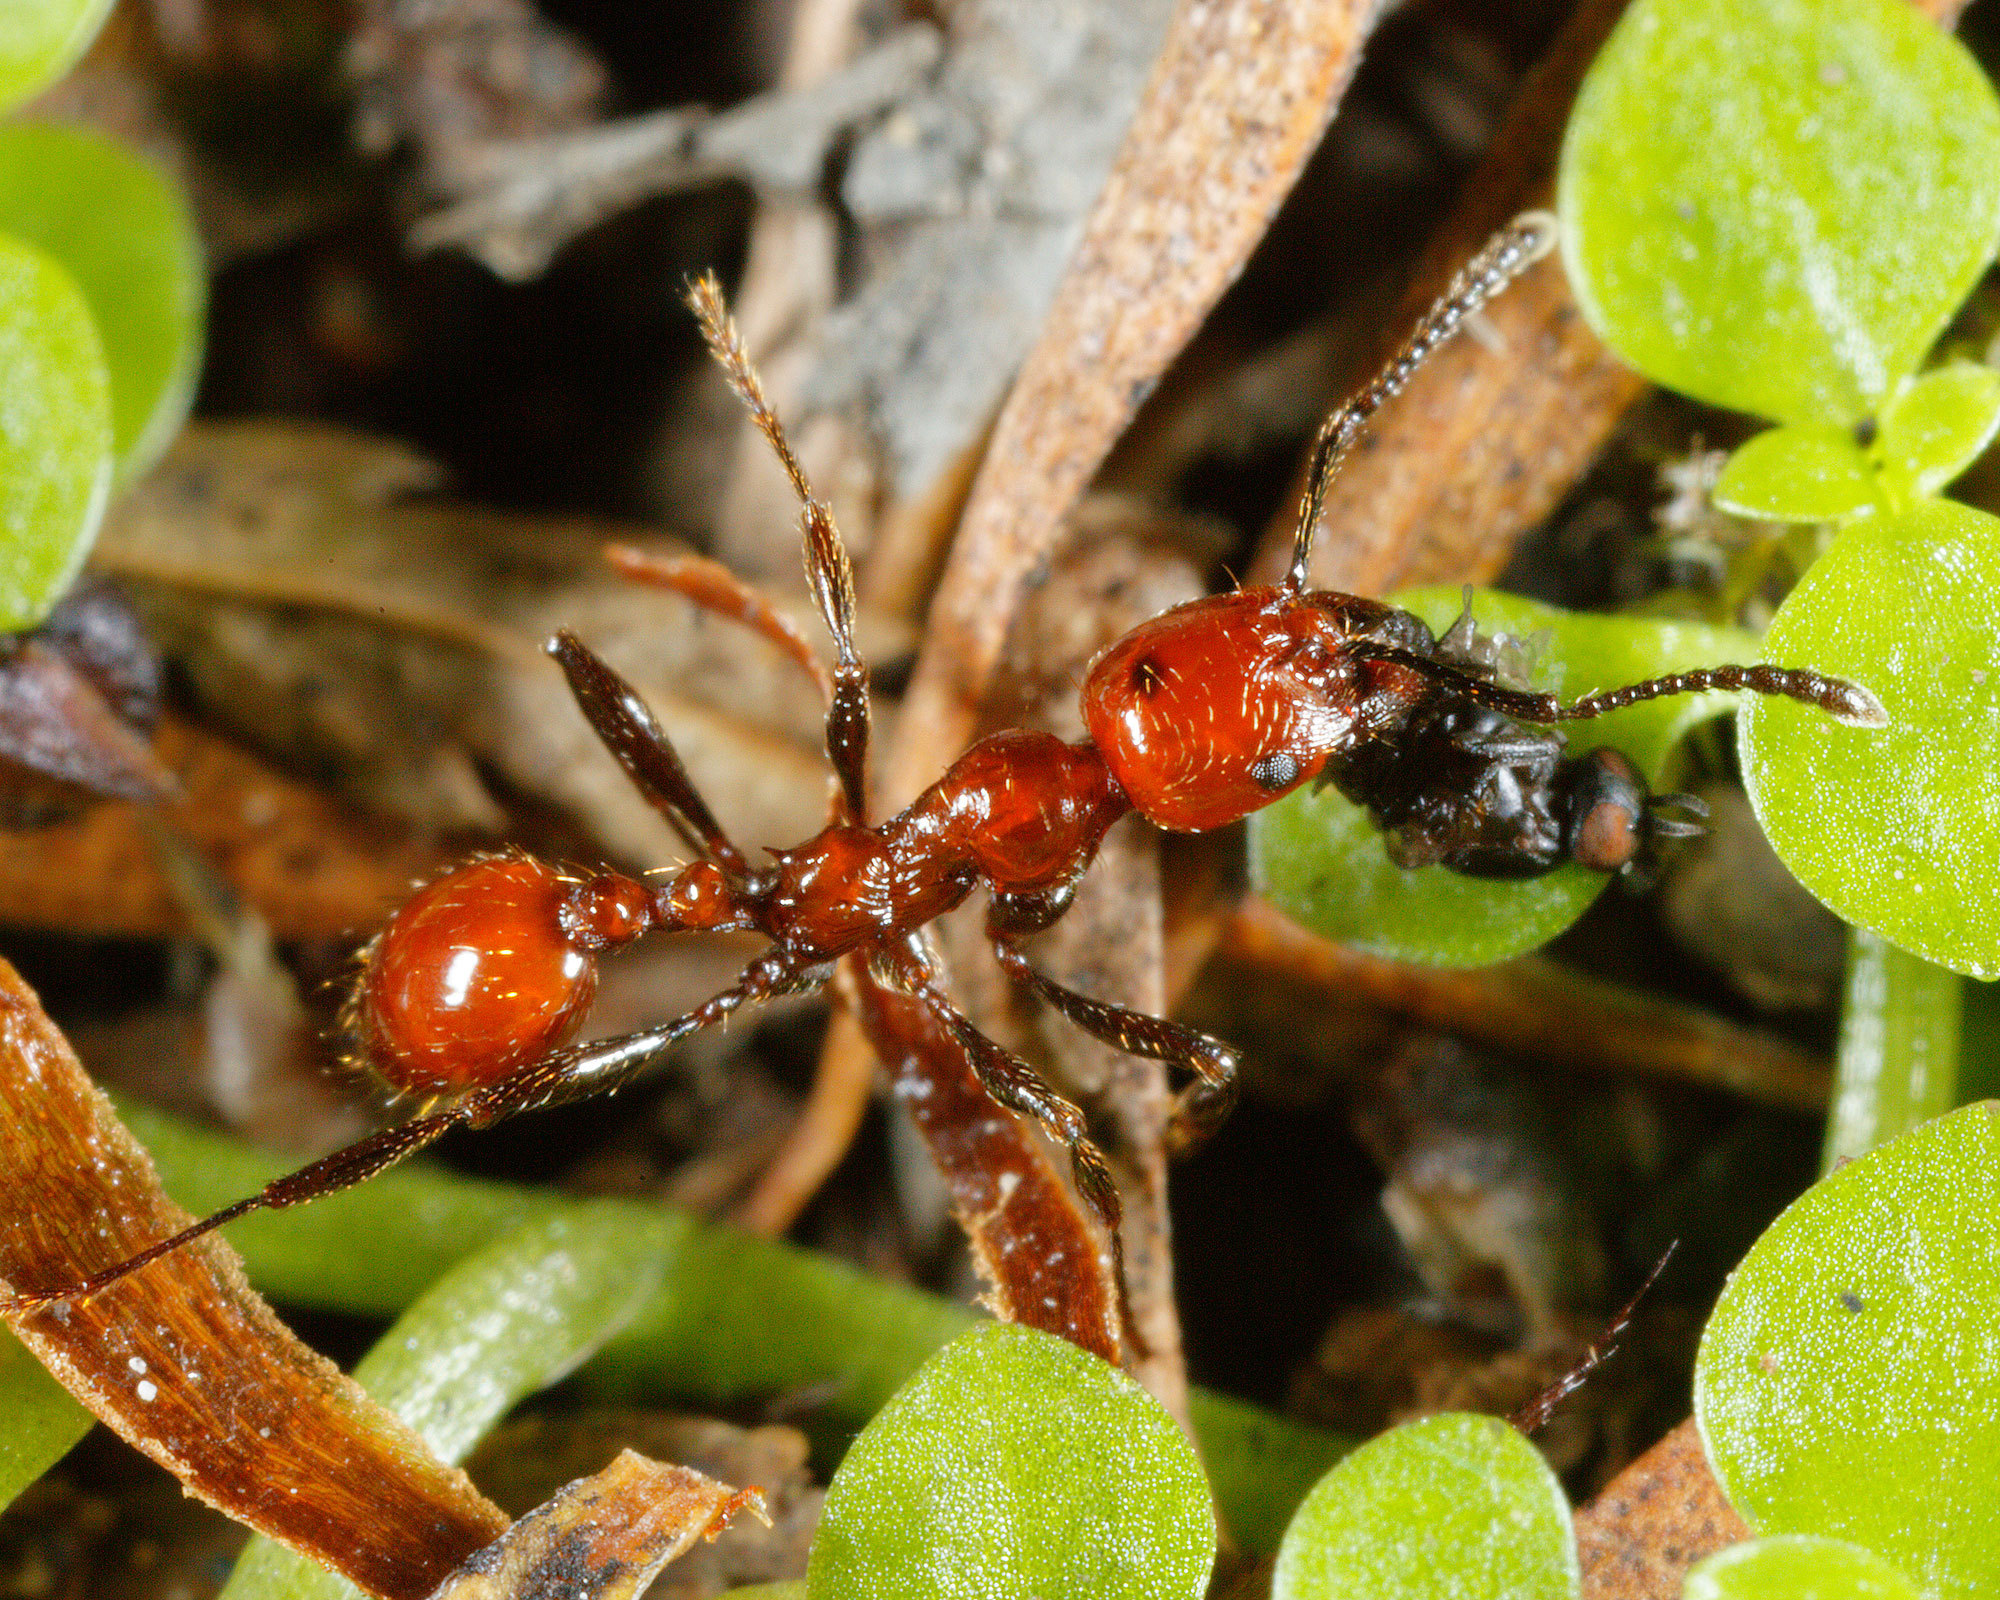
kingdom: Animalia
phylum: Arthropoda
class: Insecta
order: Hymenoptera
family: Formicidae
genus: Huberia
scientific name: Huberia striata
